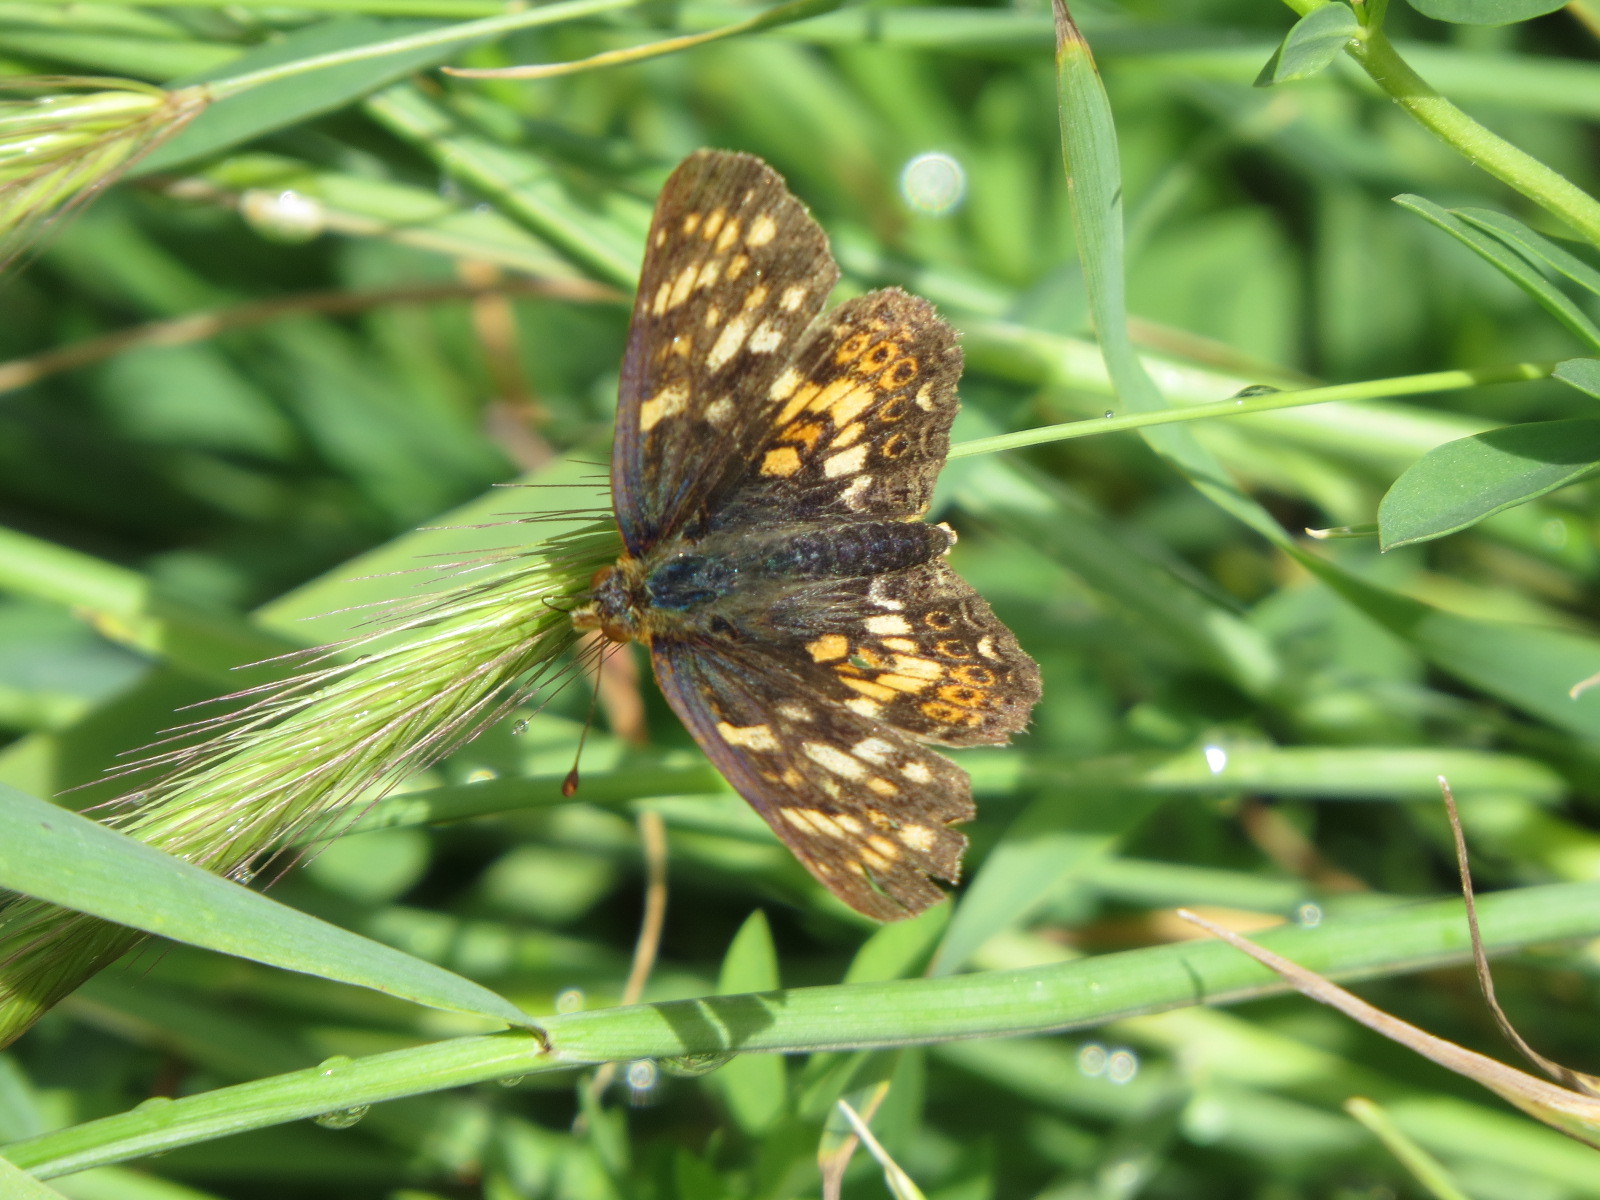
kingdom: Animalia
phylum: Arthropoda
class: Insecta
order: Lepidoptera
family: Nymphalidae
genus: Phyciodes
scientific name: Phyciodes tharos
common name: Pearl crescent
